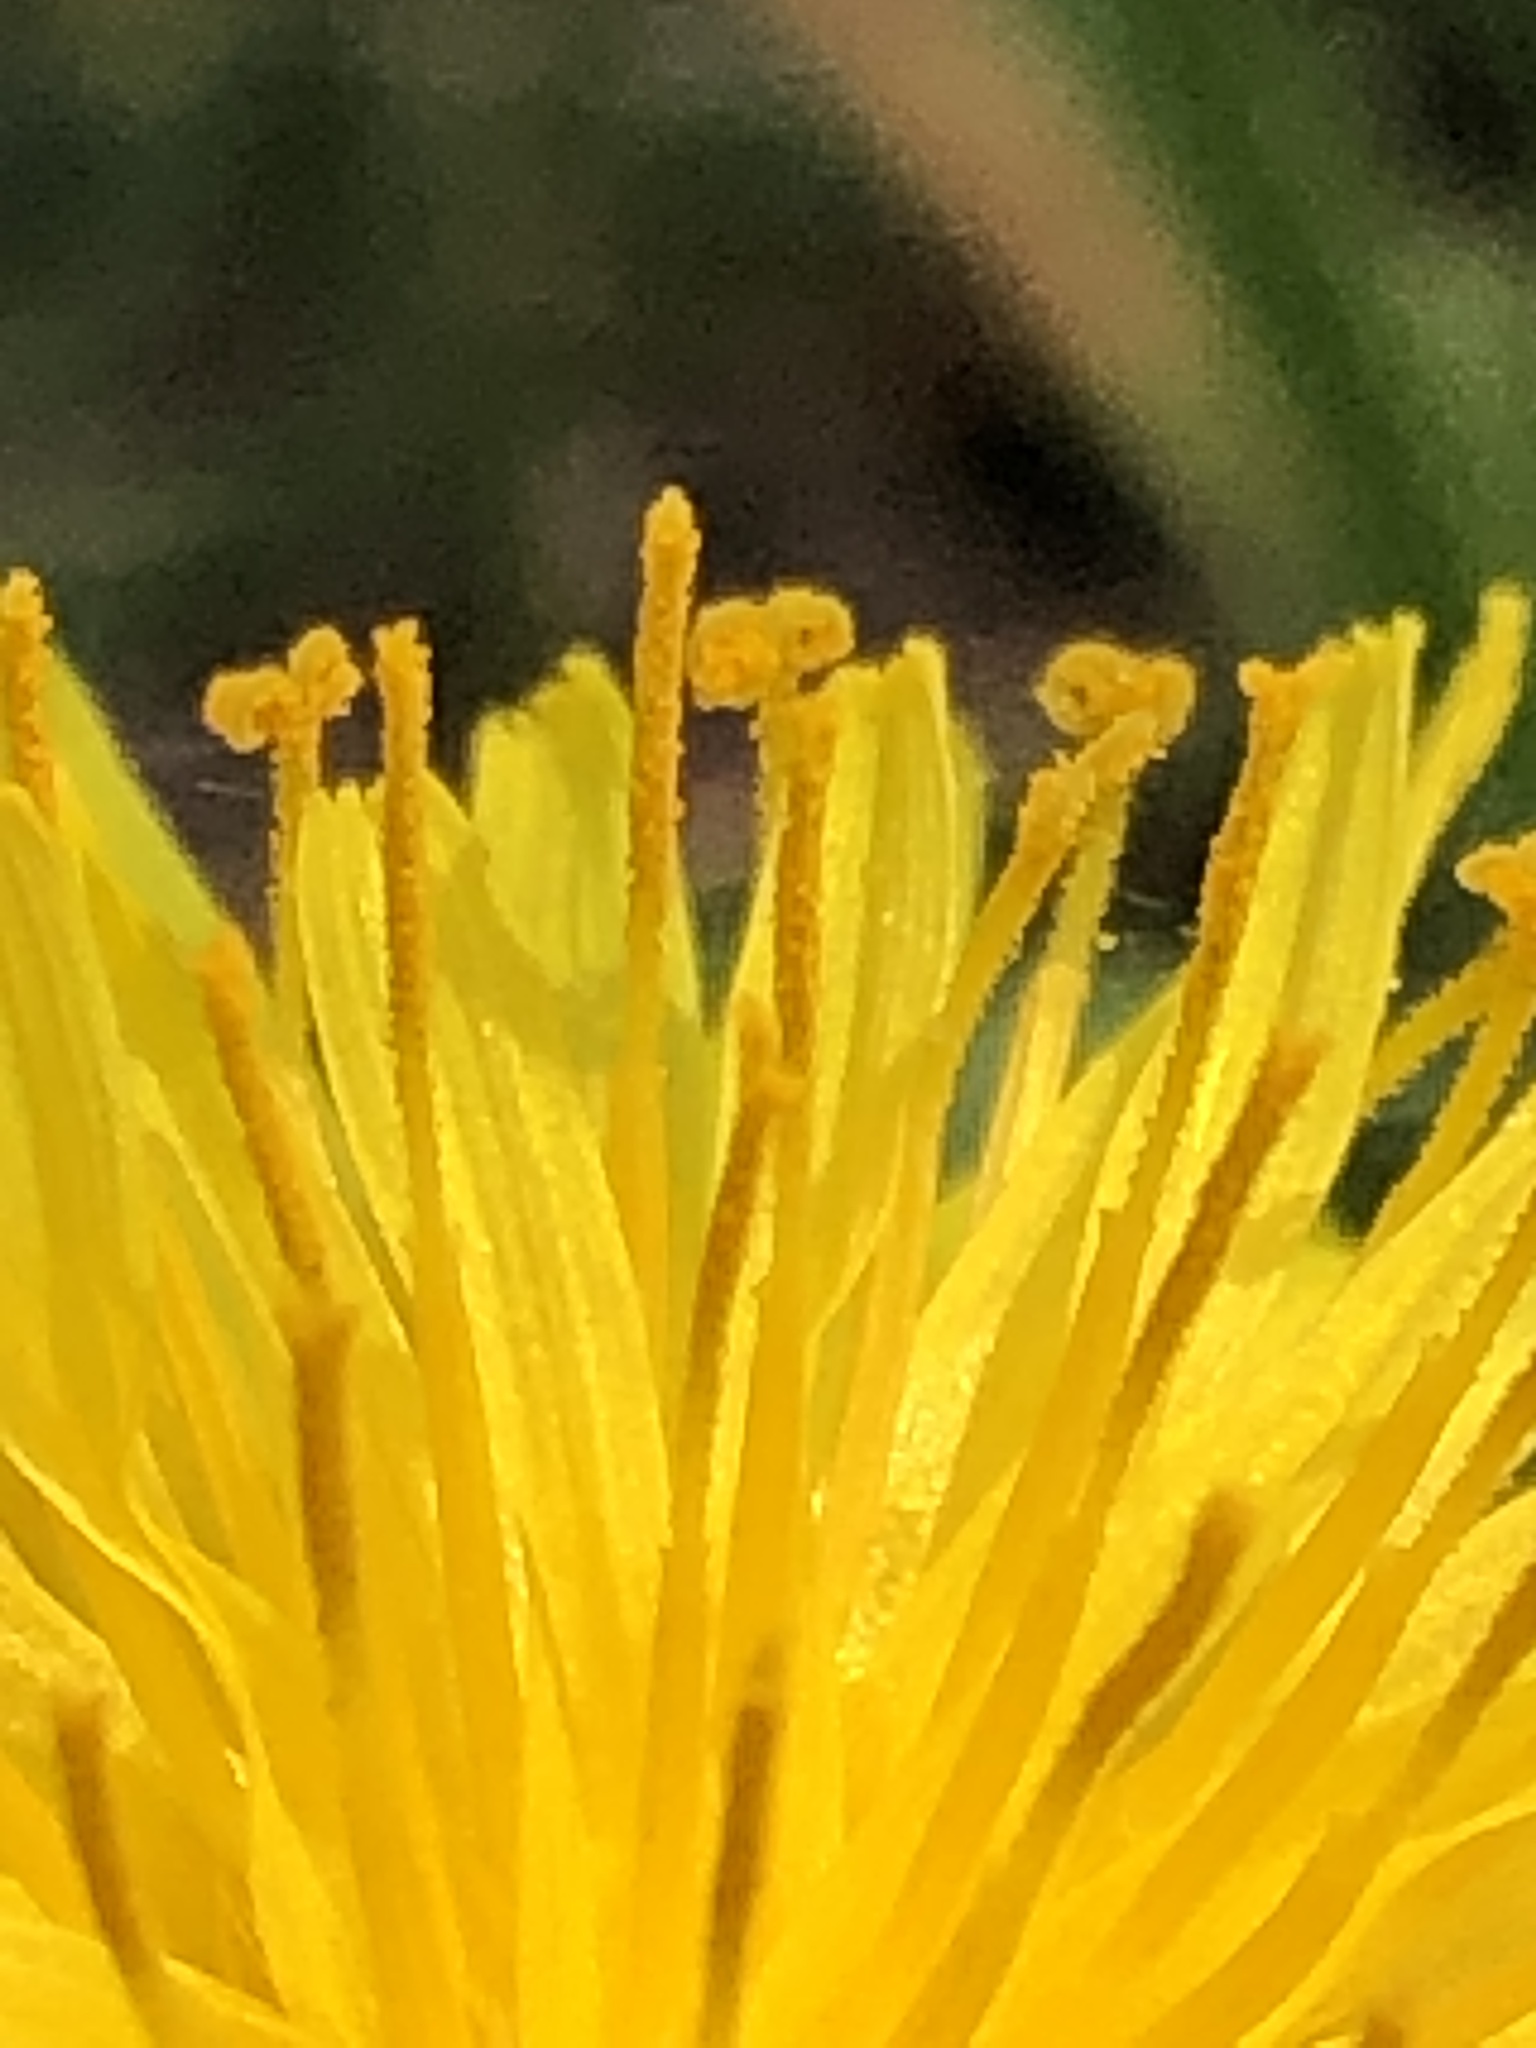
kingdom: Plantae
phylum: Tracheophyta
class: Magnoliopsida
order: Asterales
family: Asteraceae
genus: Taraxacum
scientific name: Taraxacum officinale
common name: Common dandelion
